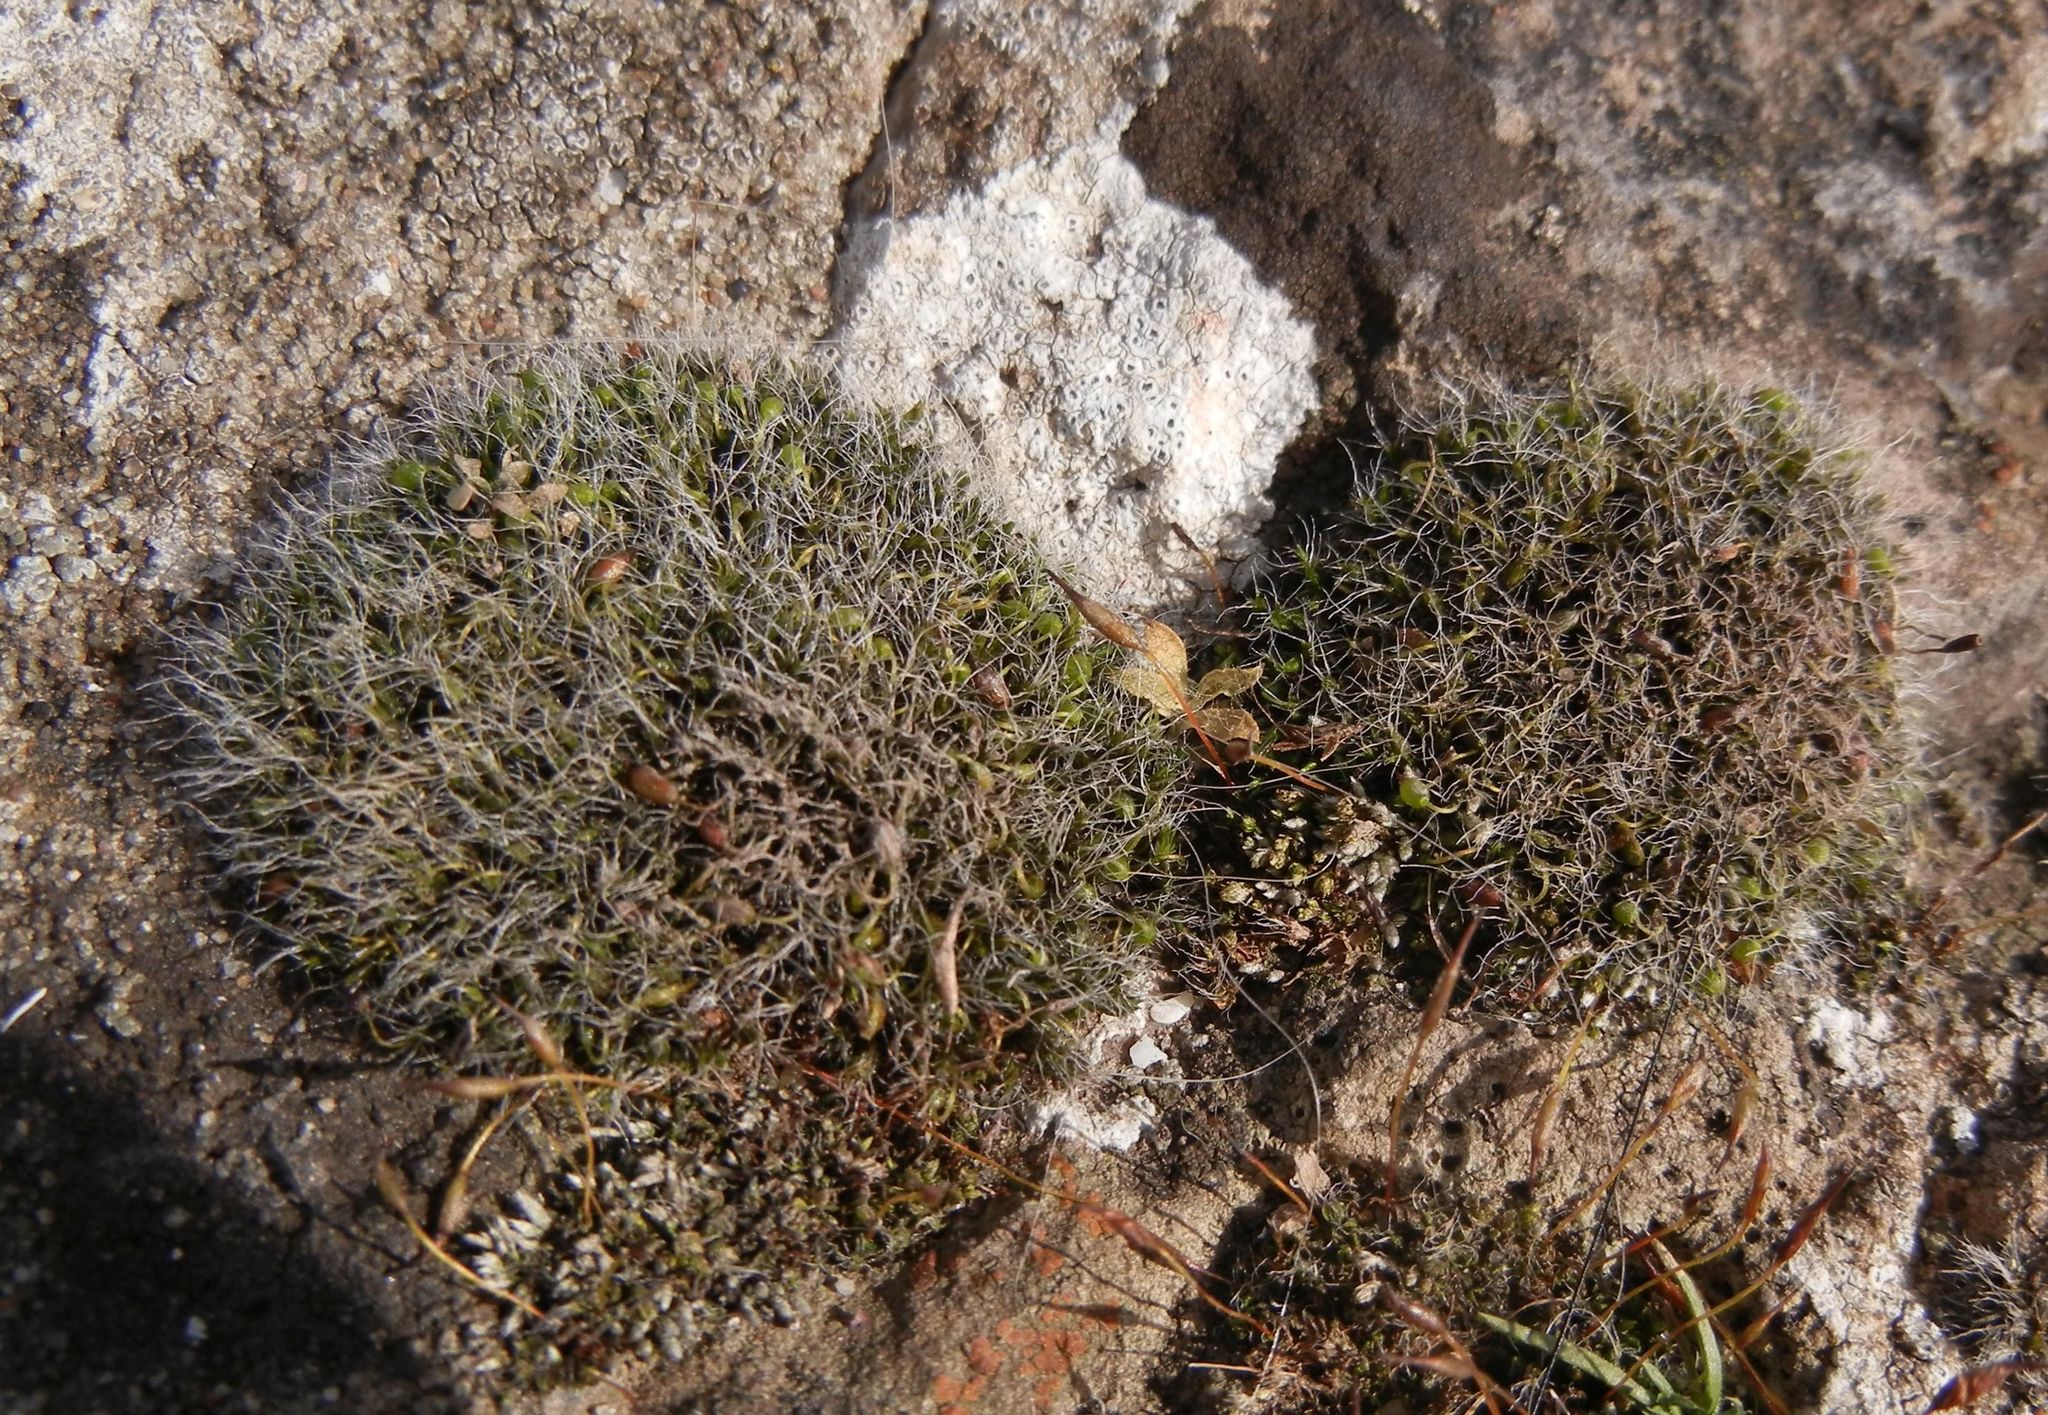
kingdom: Plantae
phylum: Bryophyta
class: Bryopsida
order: Grimmiales
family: Grimmiaceae
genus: Grimmia
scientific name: Grimmia pulvinata
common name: Grey-cushioned grimmia
